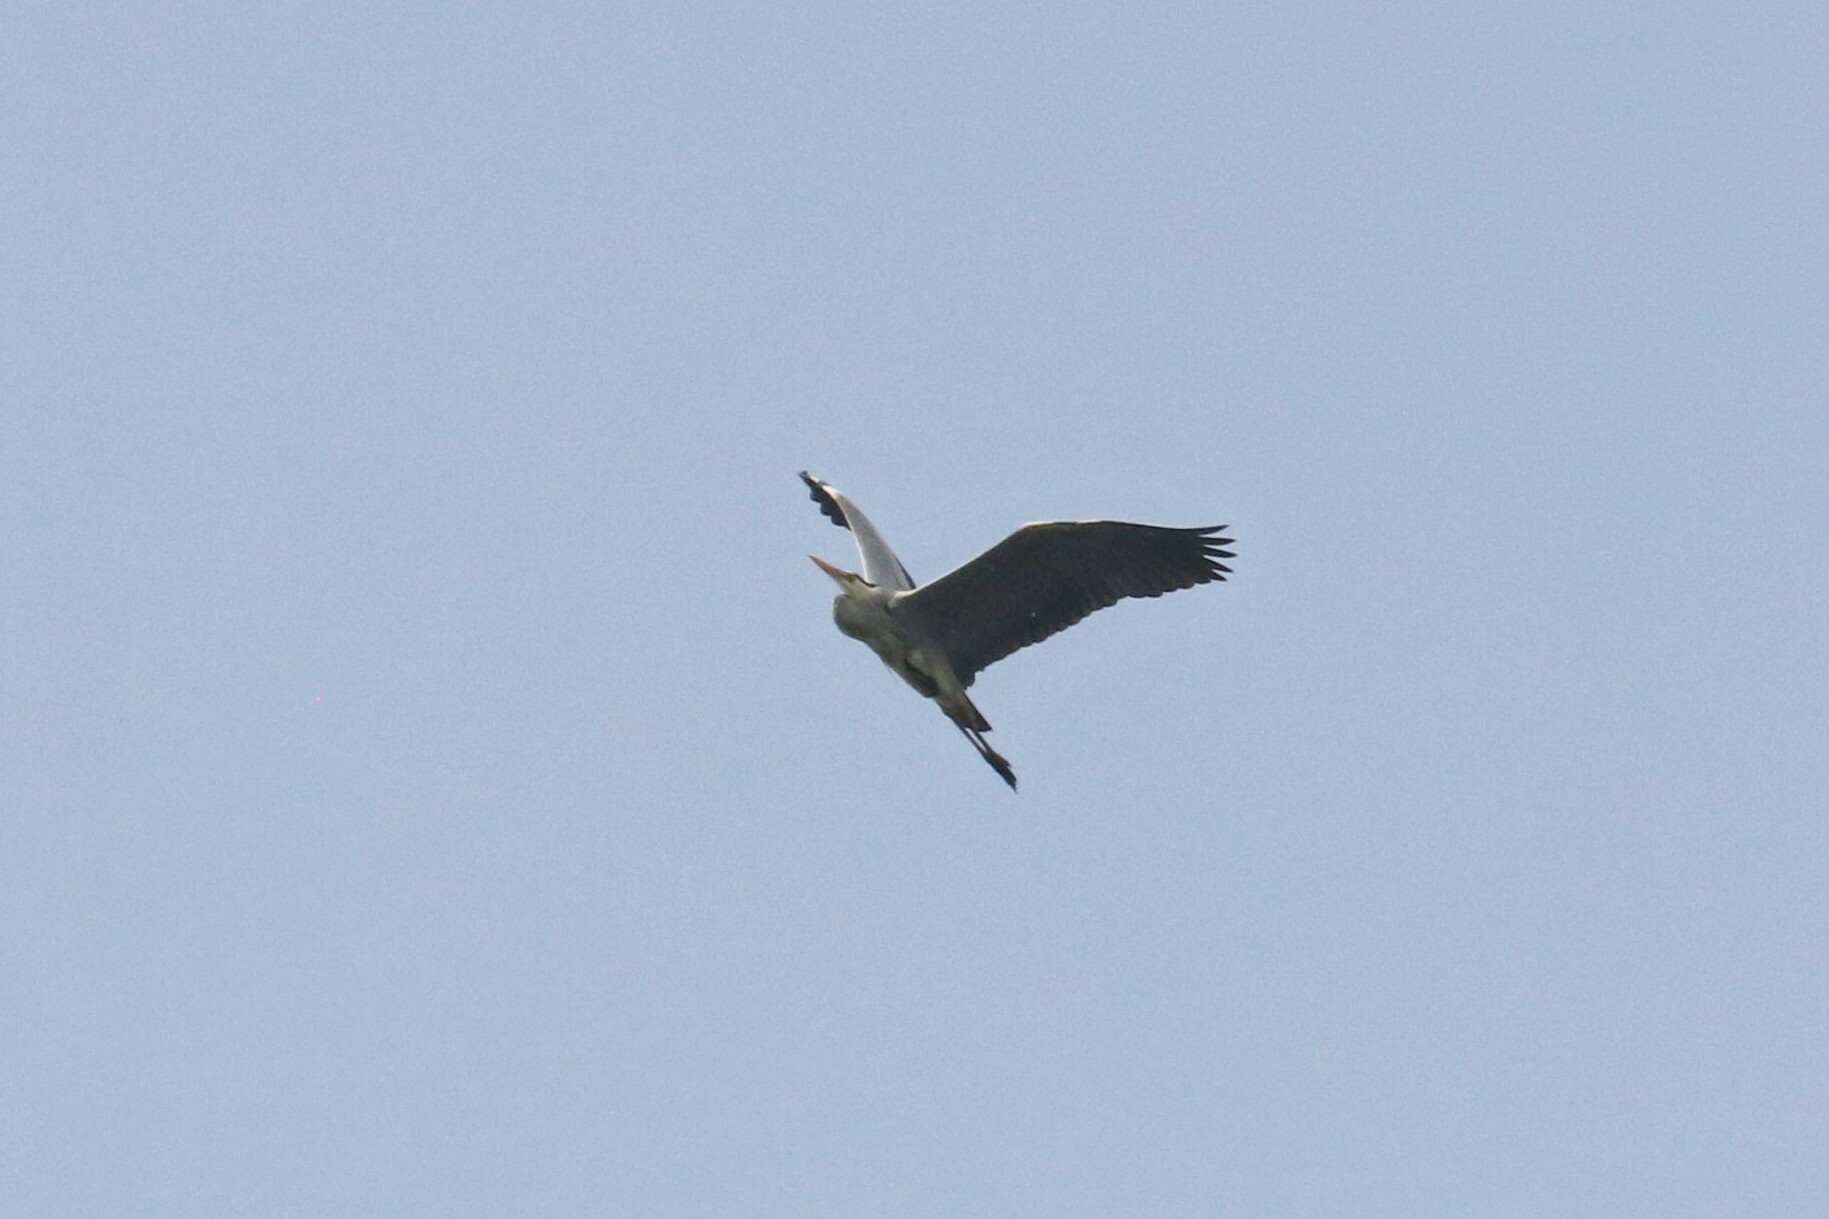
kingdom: Animalia
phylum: Chordata
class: Aves
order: Pelecaniformes
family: Ardeidae
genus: Ardea
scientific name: Ardea cinerea
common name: Grey heron
